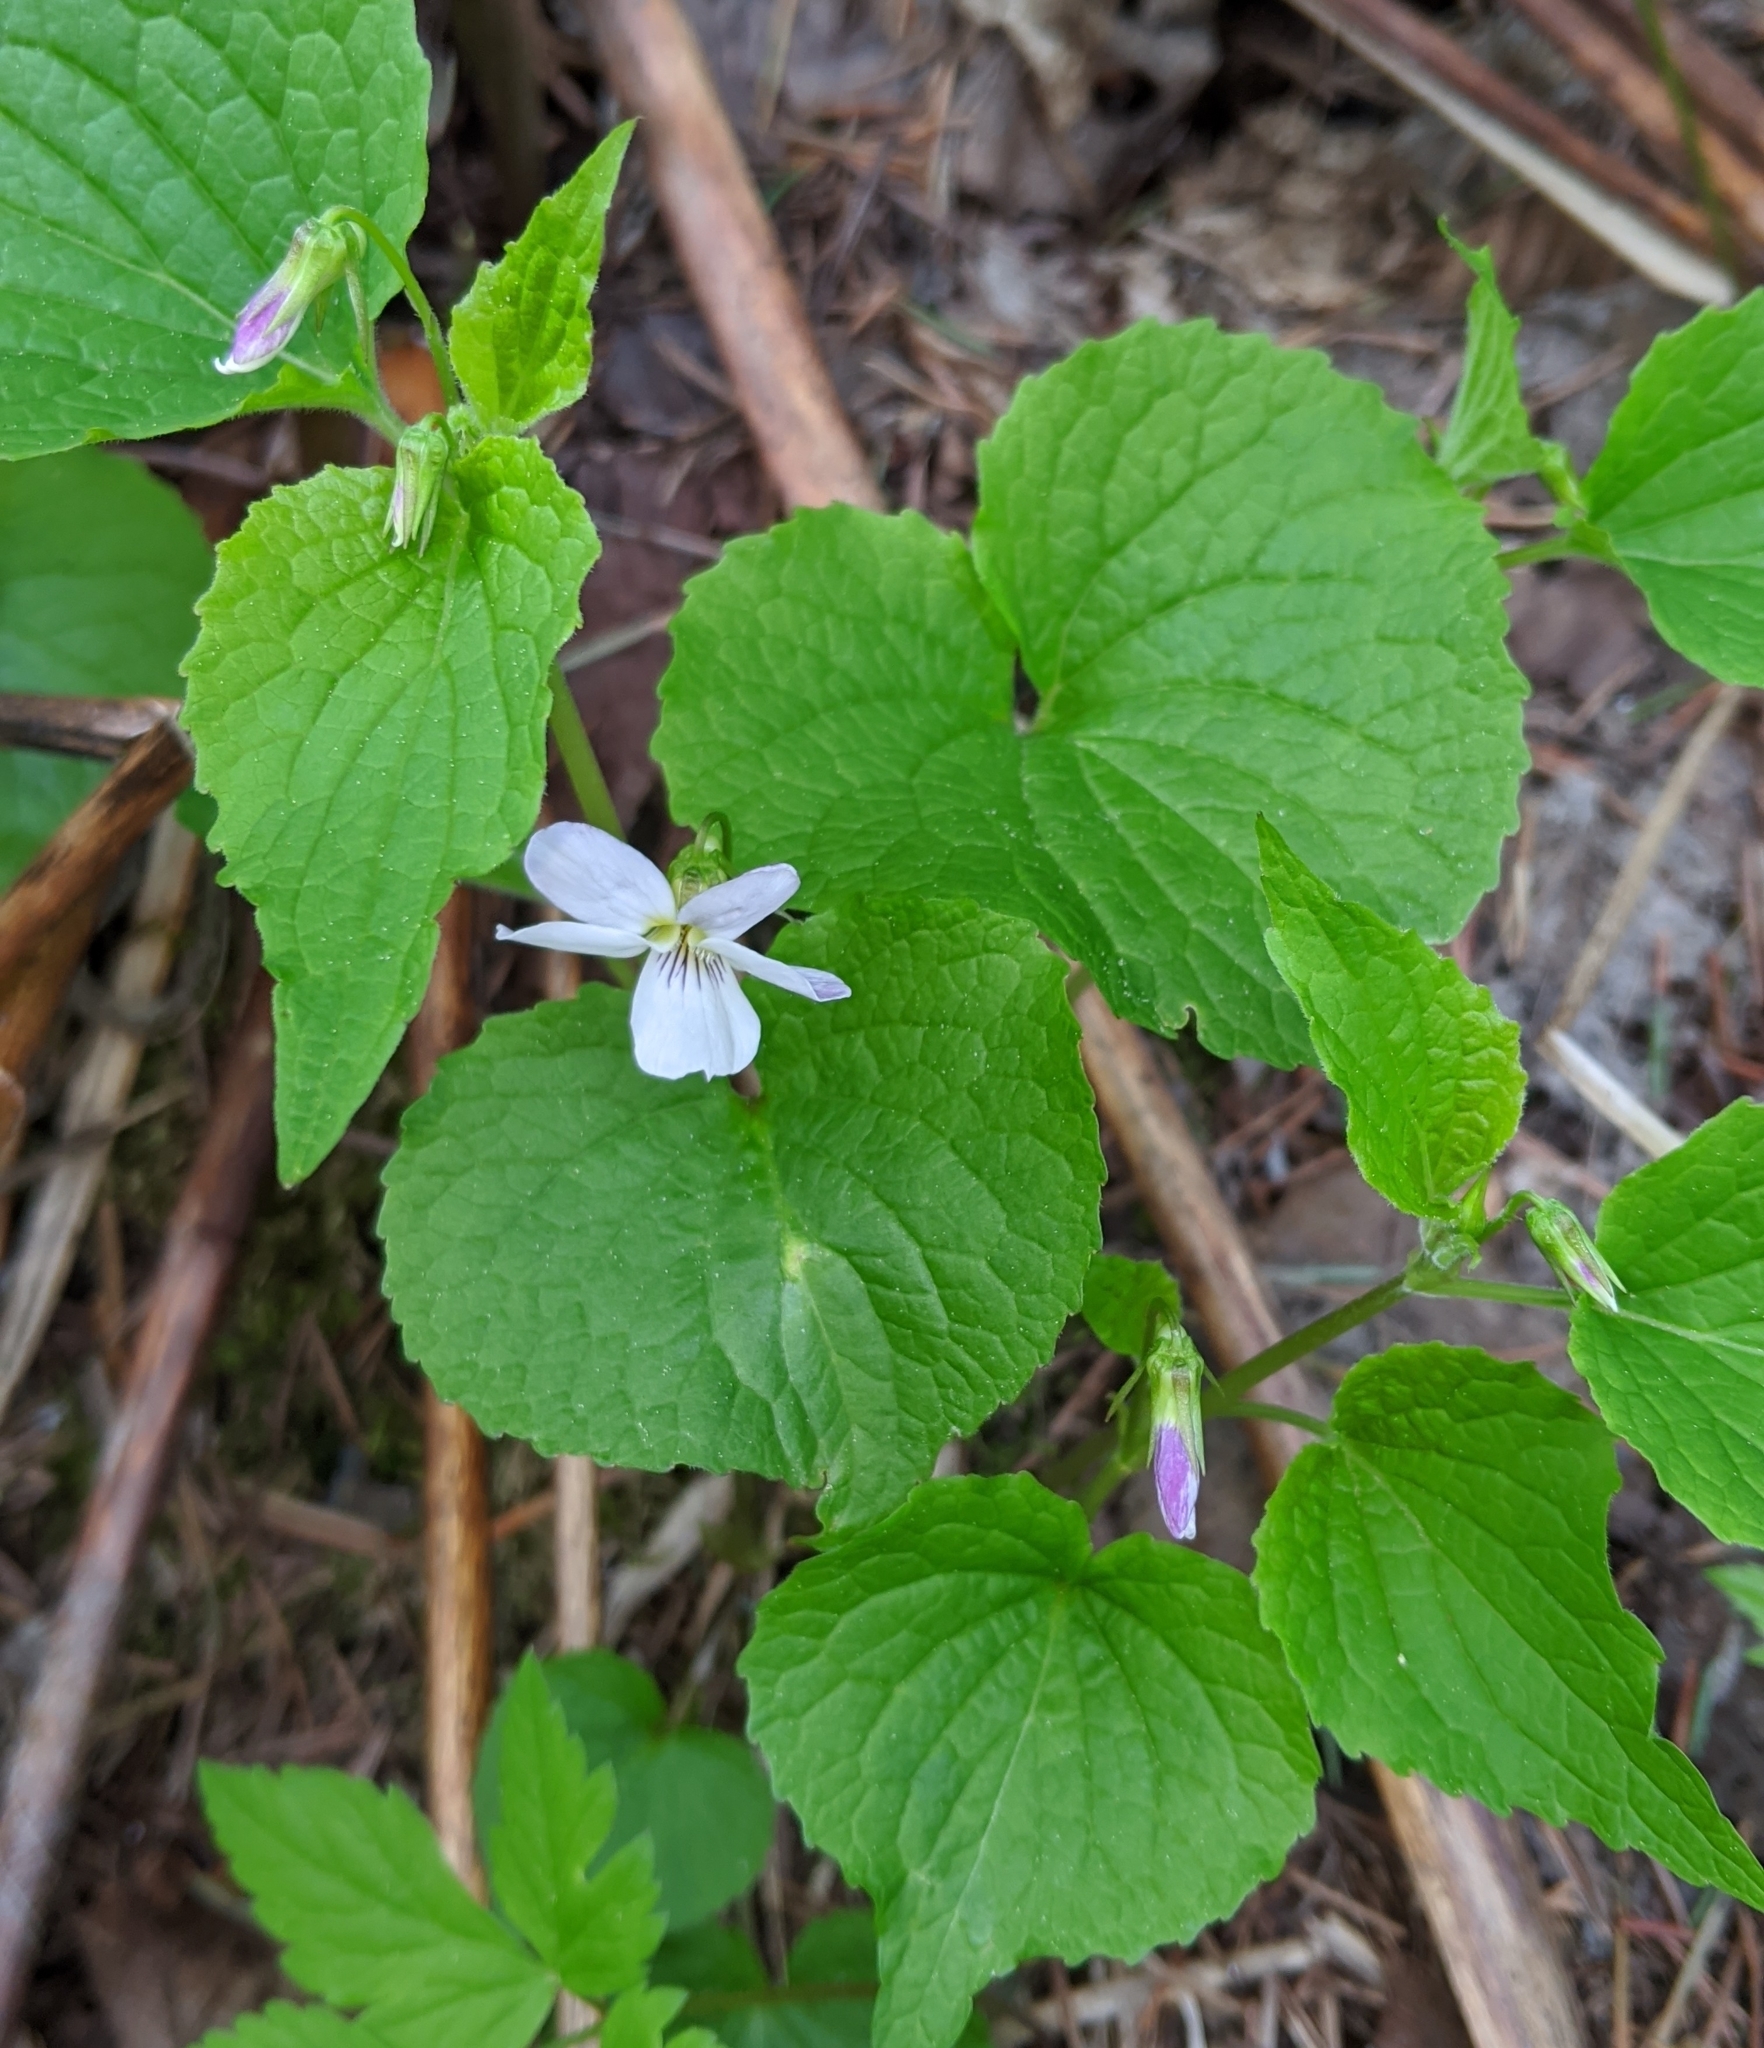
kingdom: Plantae
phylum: Tracheophyta
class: Magnoliopsida
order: Malpighiales
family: Violaceae
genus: Viola
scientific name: Viola canadensis
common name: Canada violet
